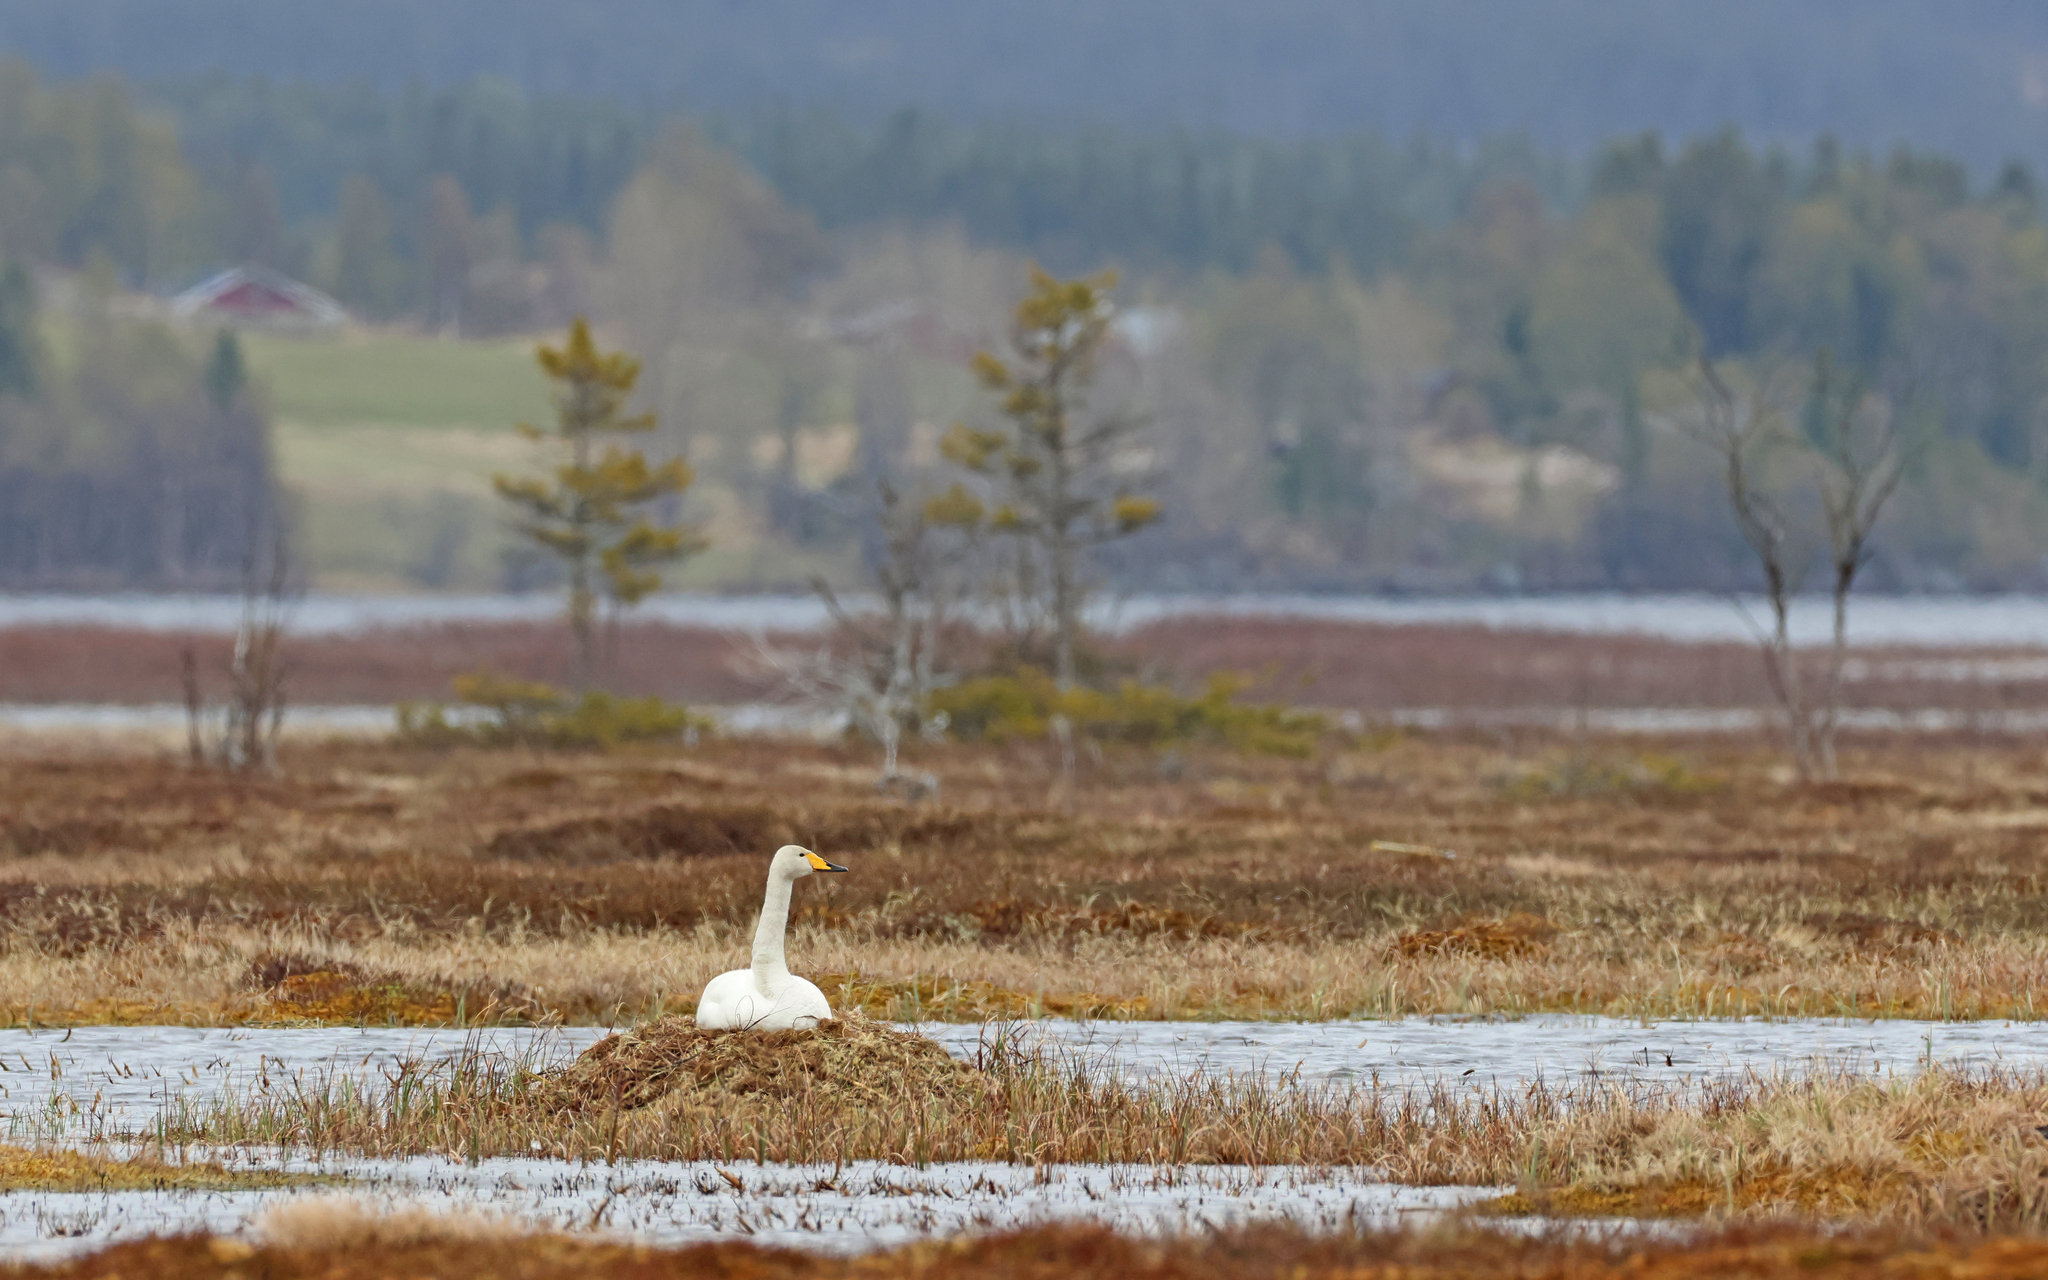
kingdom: Animalia
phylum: Chordata
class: Aves
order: Anseriformes
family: Anatidae
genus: Cygnus
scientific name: Cygnus cygnus
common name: Whooper swan
